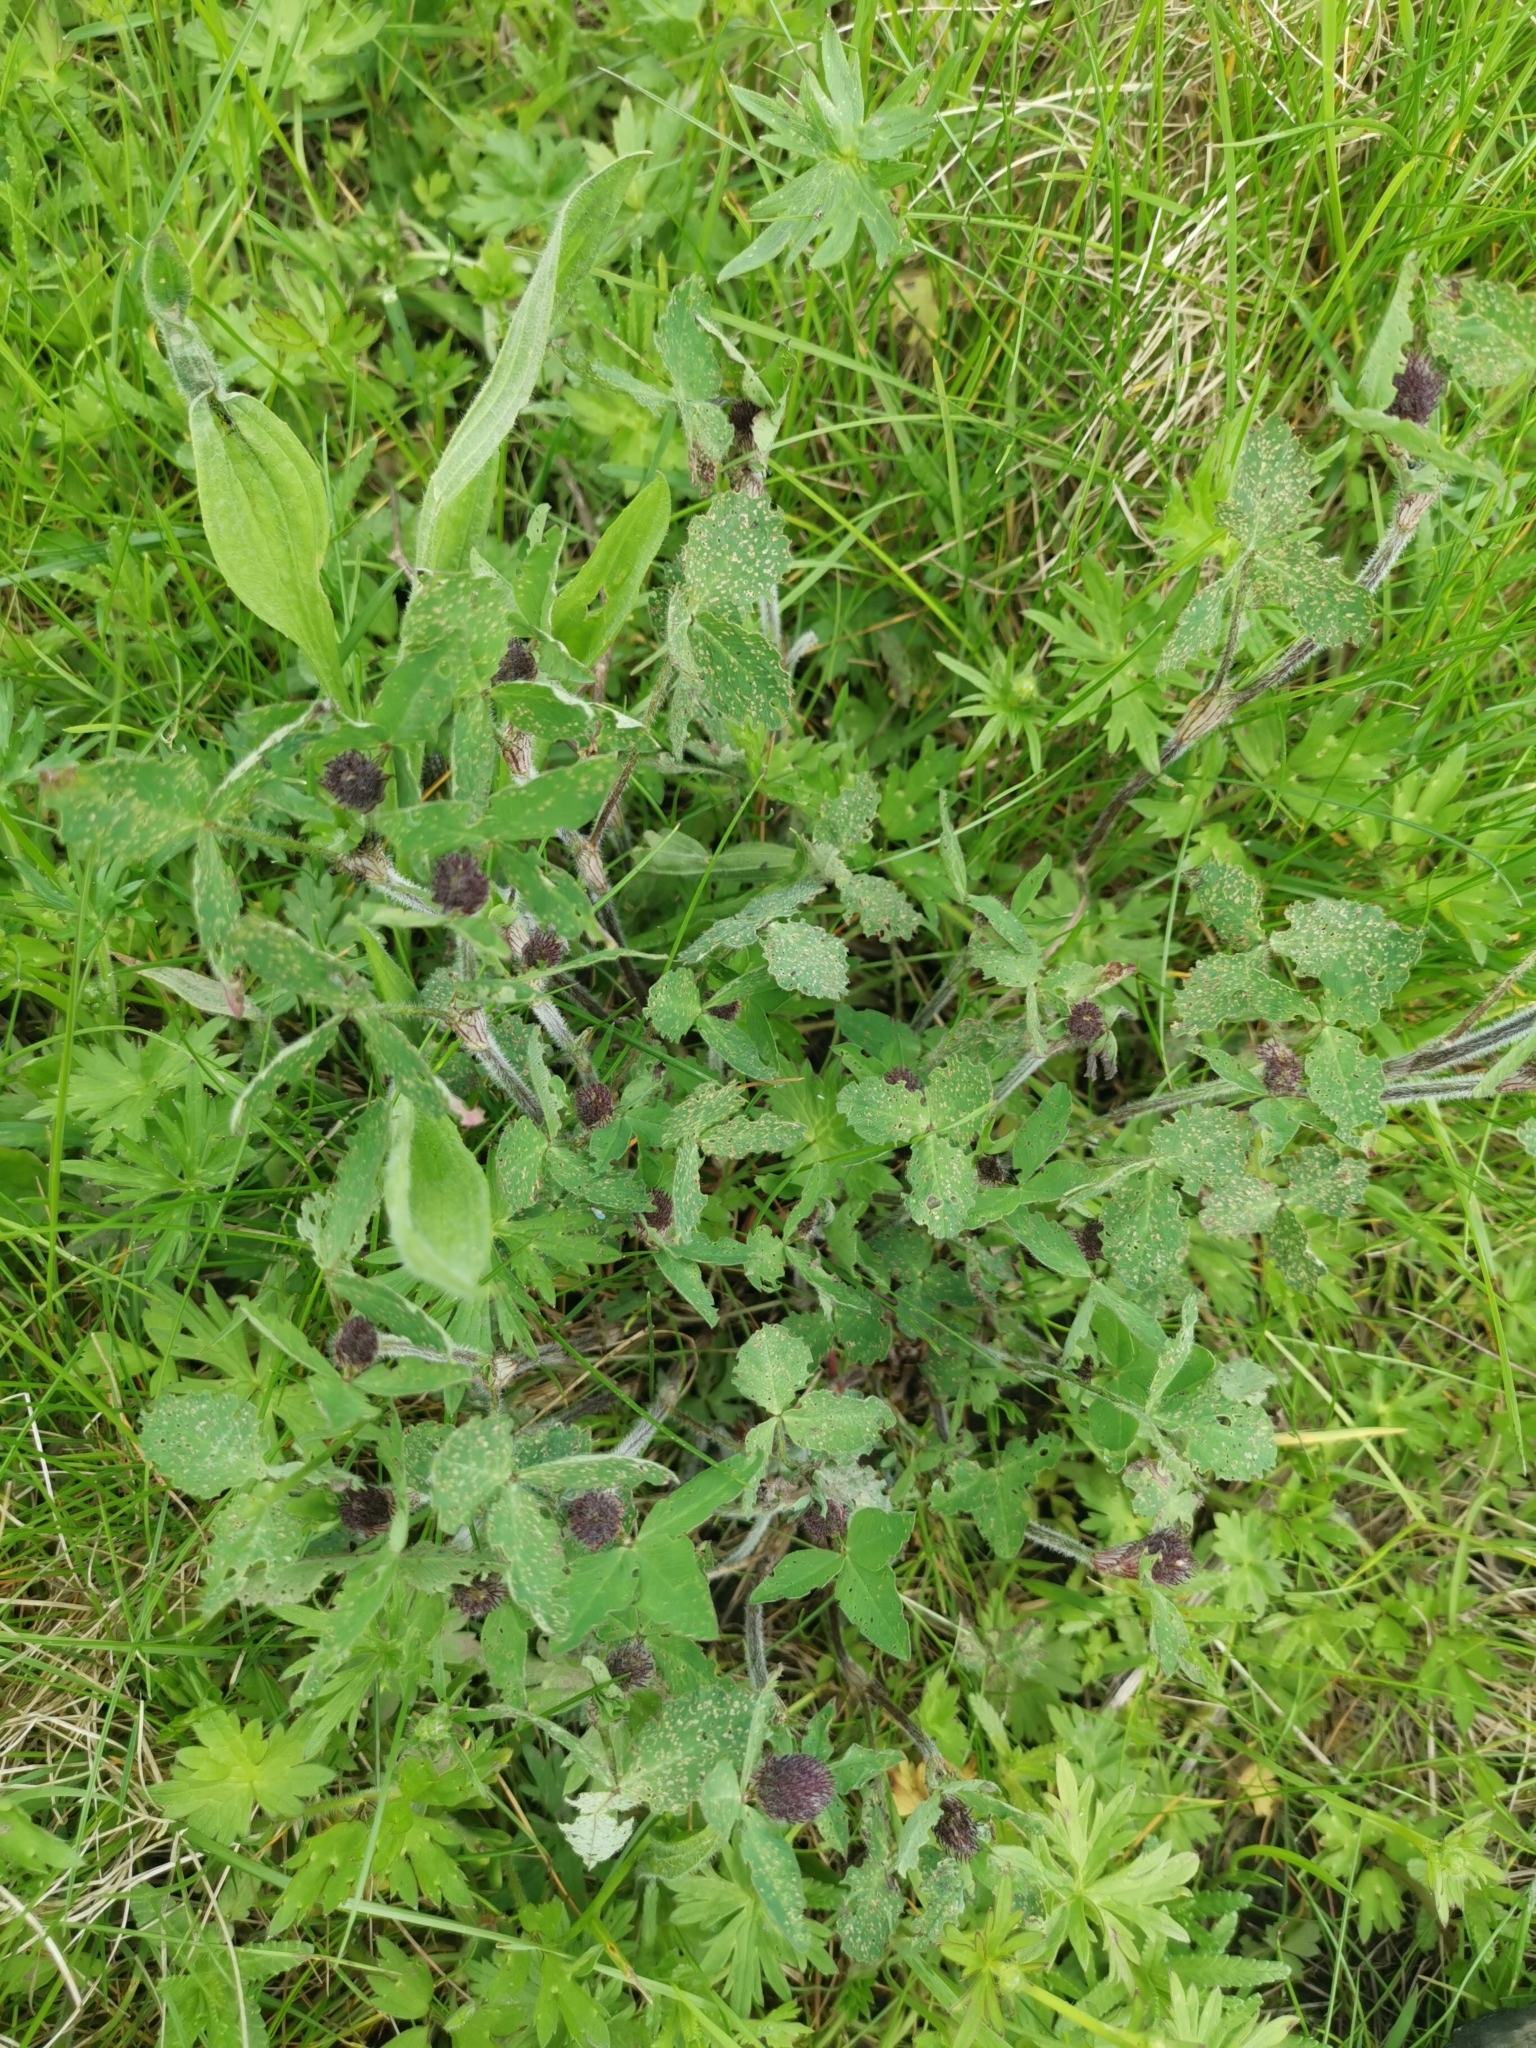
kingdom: Plantae
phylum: Tracheophyta
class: Magnoliopsida
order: Fabales
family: Fabaceae
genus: Trifolium
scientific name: Trifolium pratense
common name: Red clover
